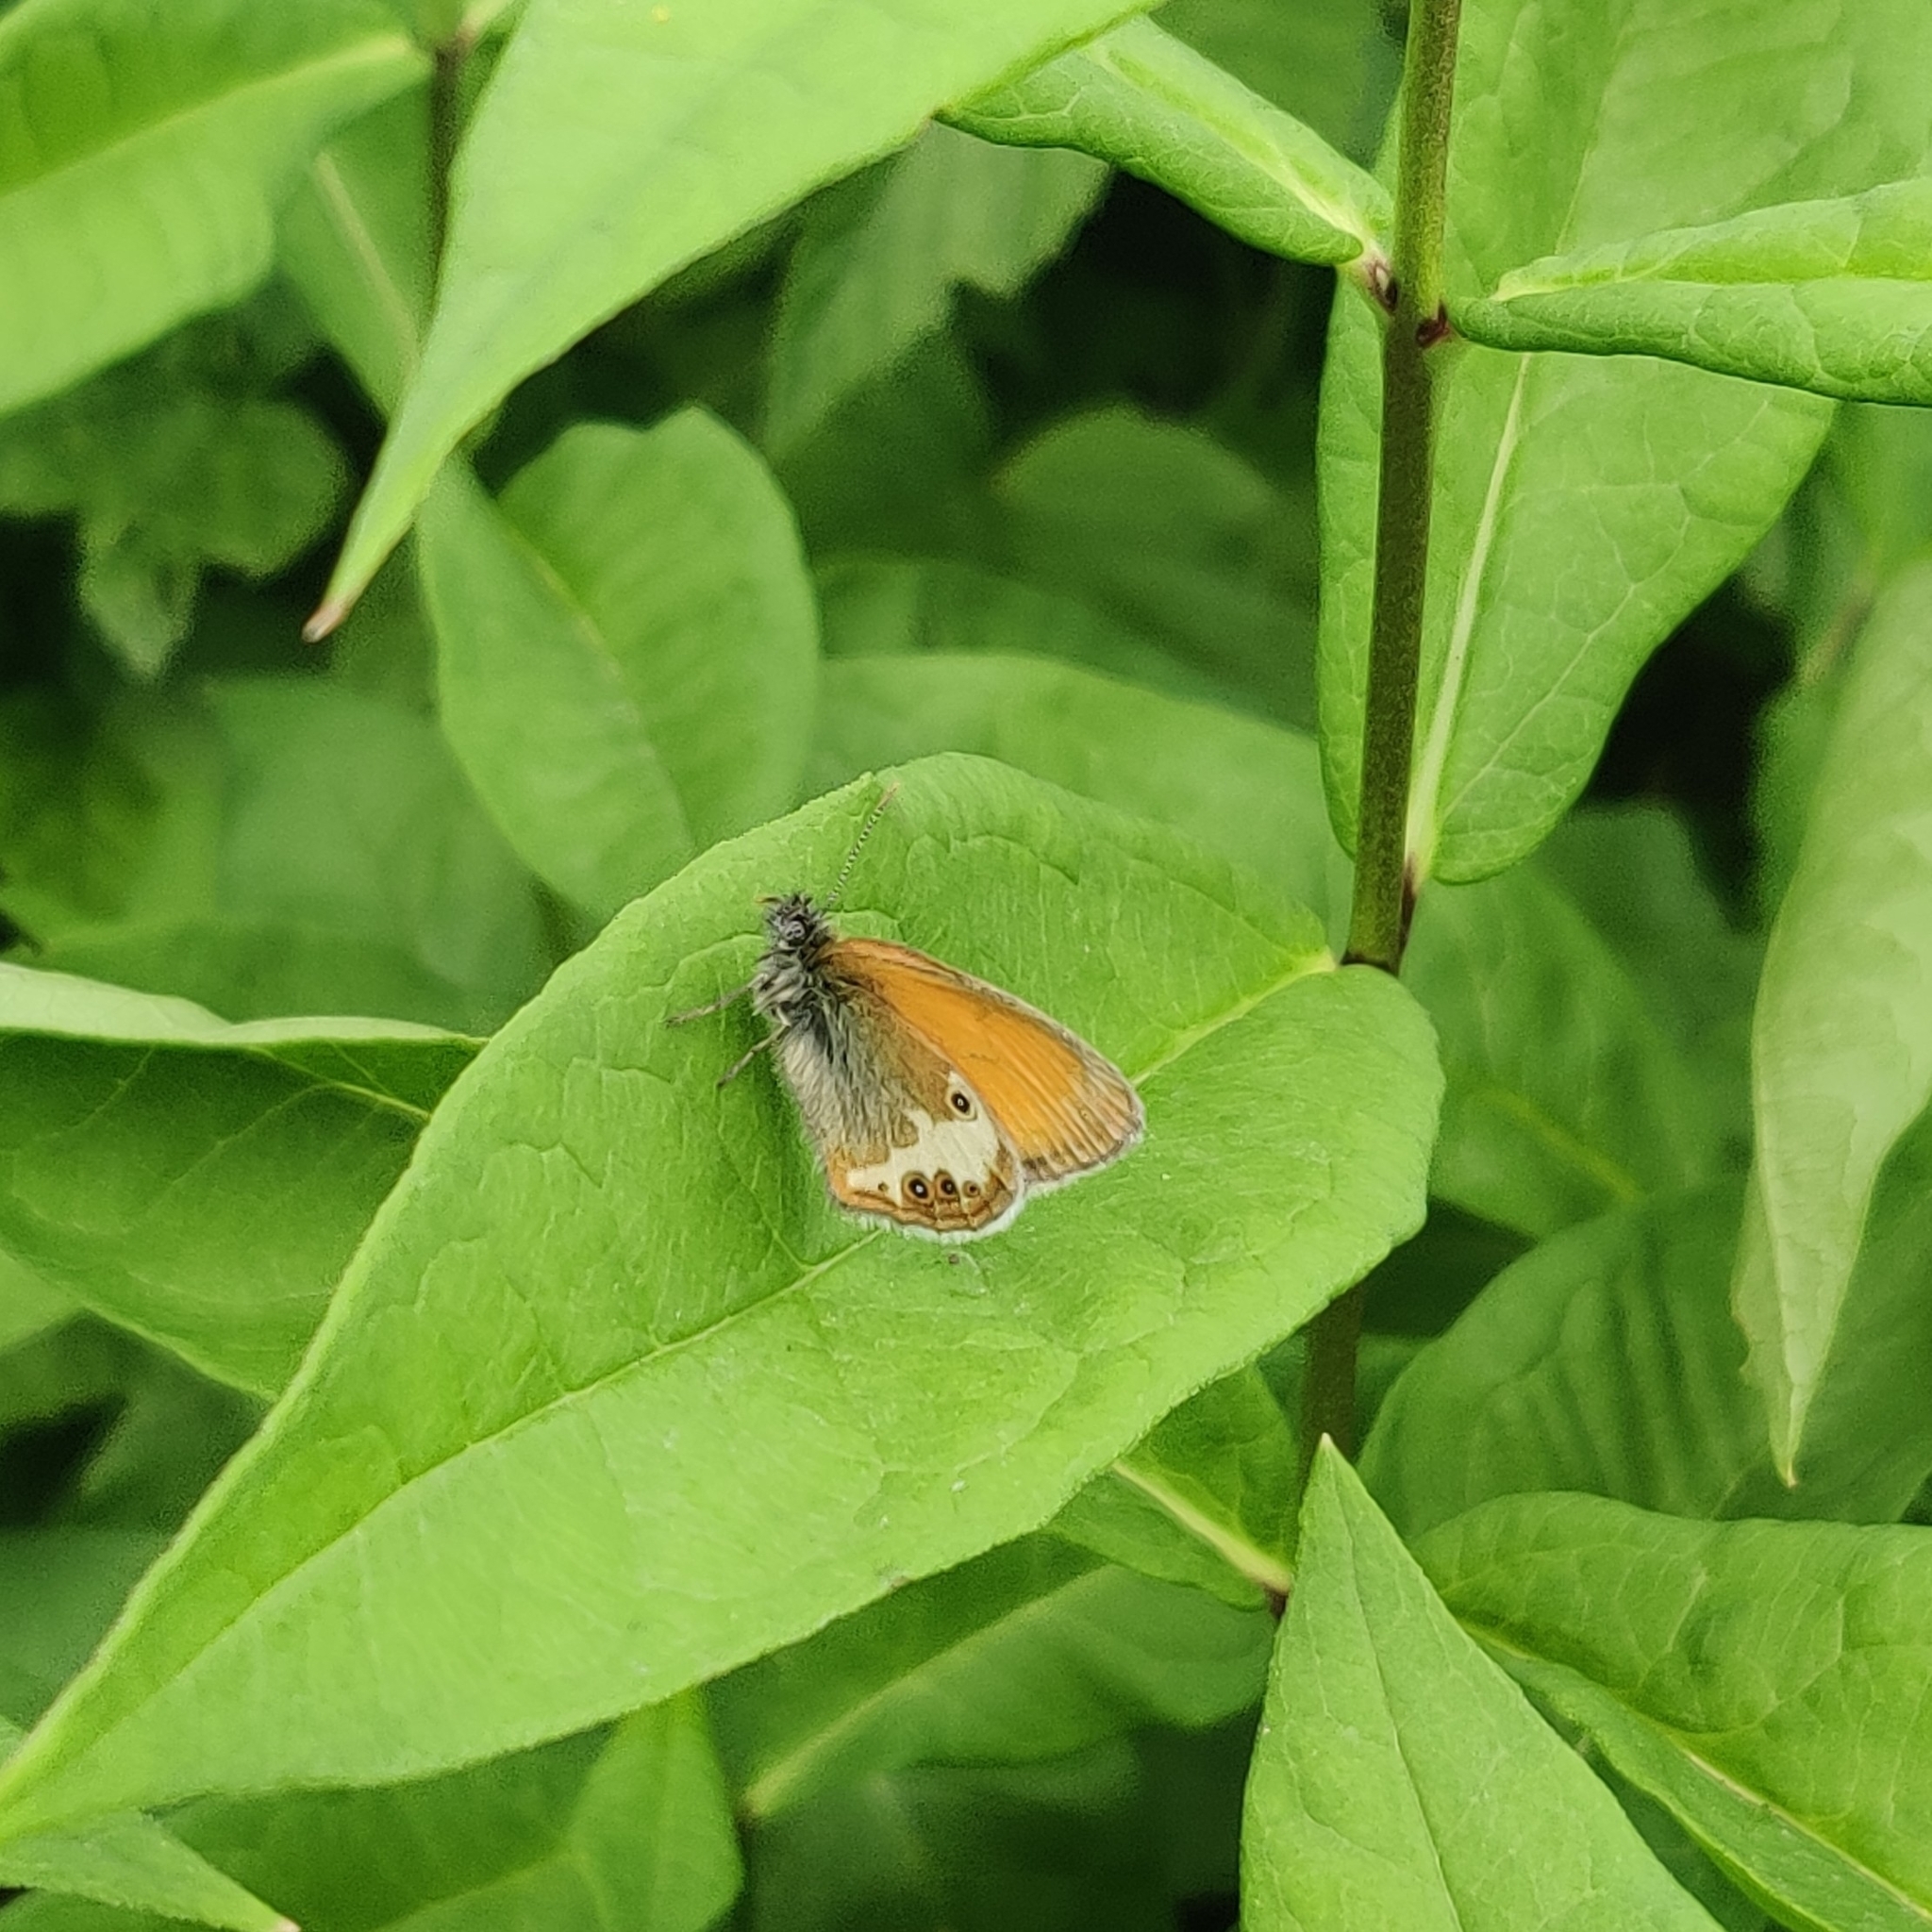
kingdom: Animalia
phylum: Arthropoda
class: Insecta
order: Lepidoptera
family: Nymphalidae
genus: Coenonympha
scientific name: Coenonympha arcania
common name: Pearly heath
